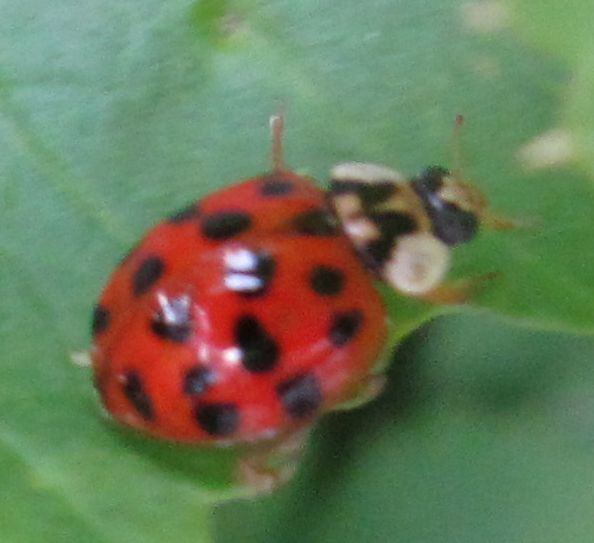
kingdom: Animalia
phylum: Arthropoda
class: Insecta
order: Coleoptera
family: Coccinellidae
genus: Harmonia
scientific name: Harmonia axyridis
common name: Harlequin ladybird
